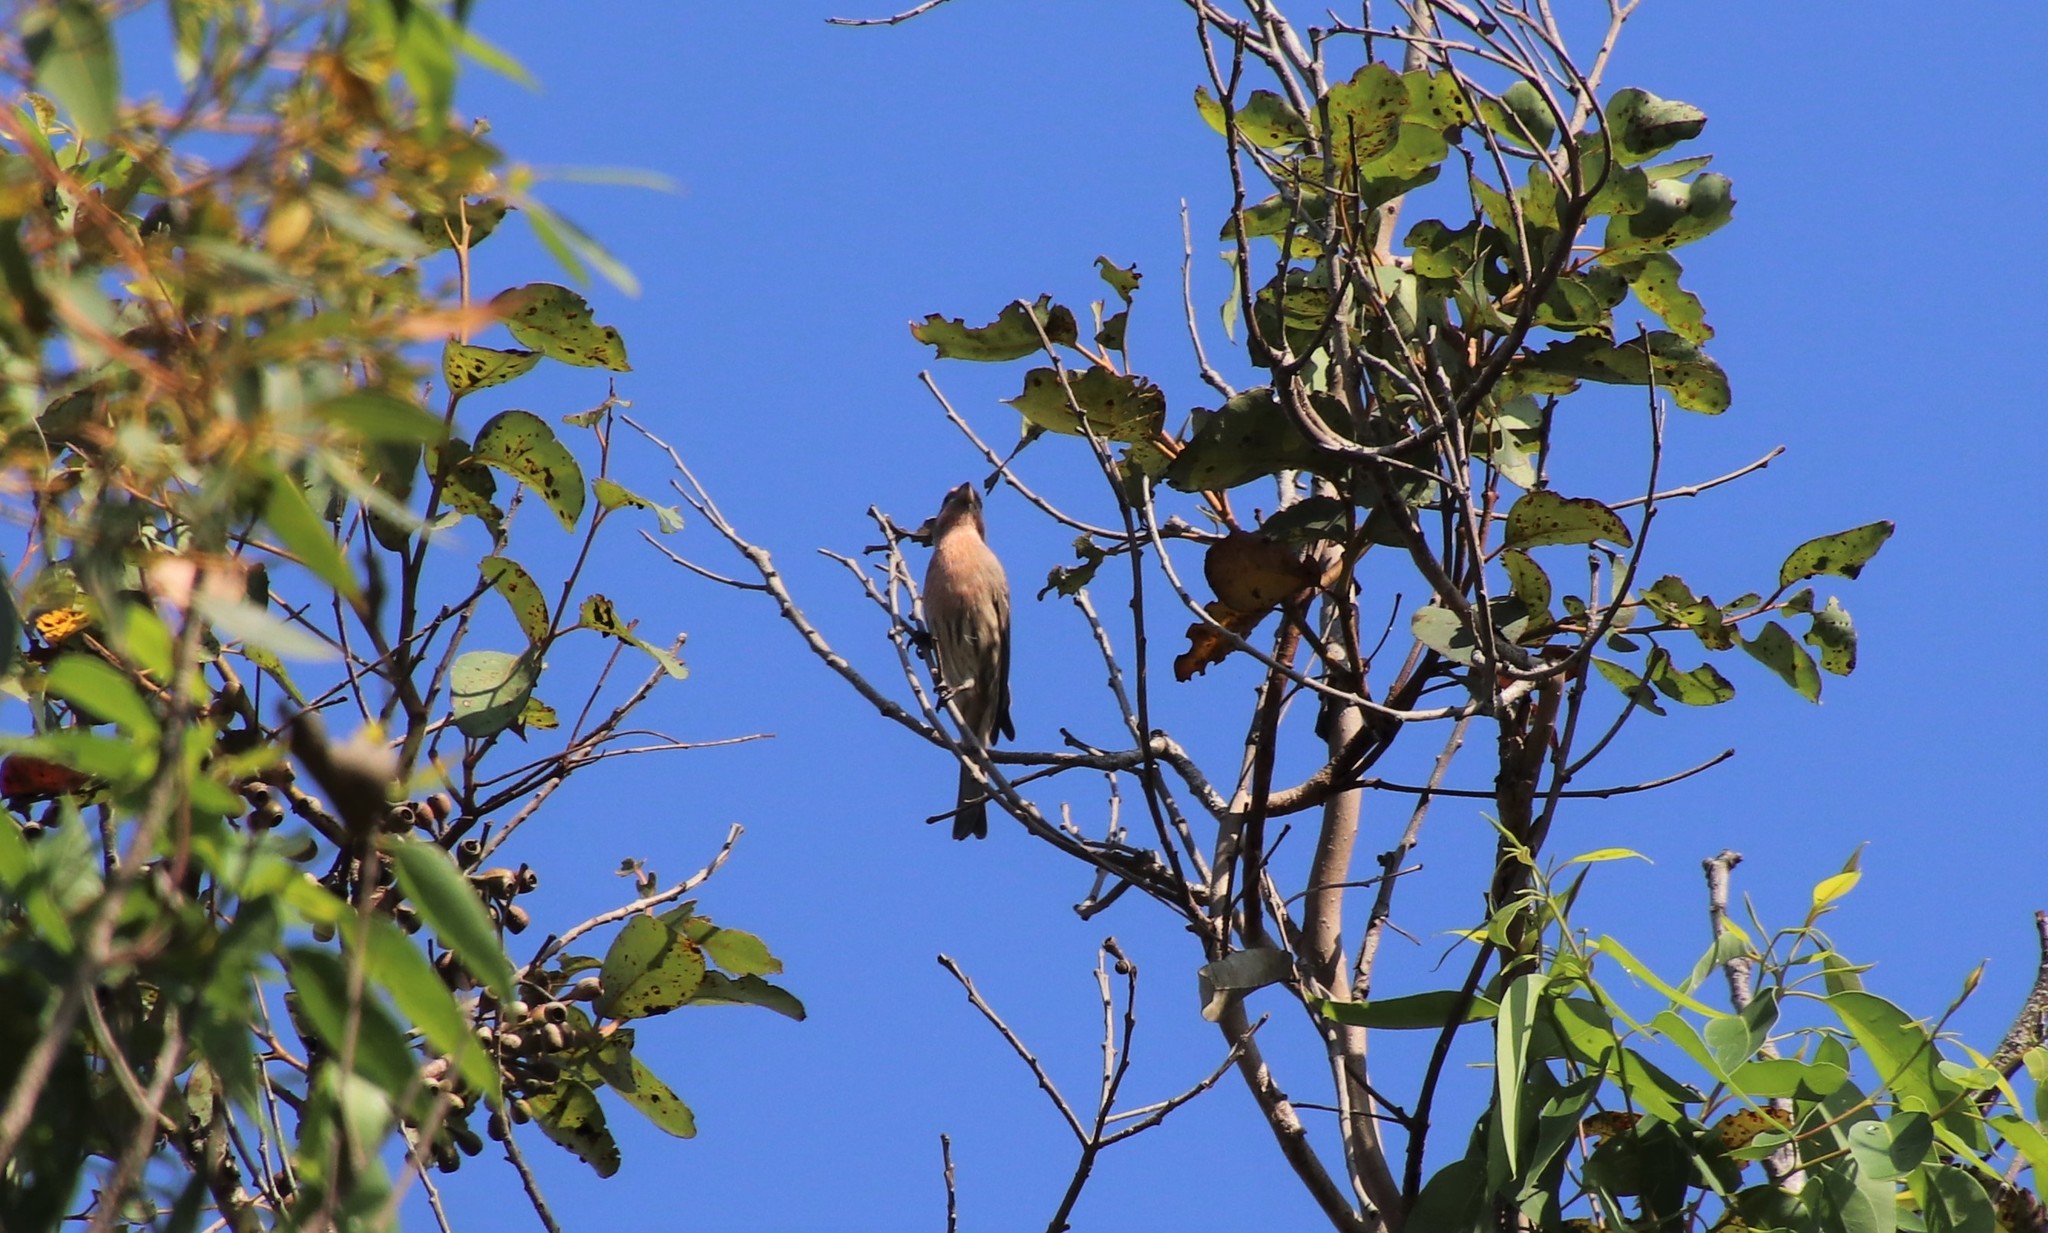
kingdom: Animalia
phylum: Chordata
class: Aves
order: Passeriformes
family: Fringillidae
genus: Haemorhous
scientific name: Haemorhous mexicanus
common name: House finch
